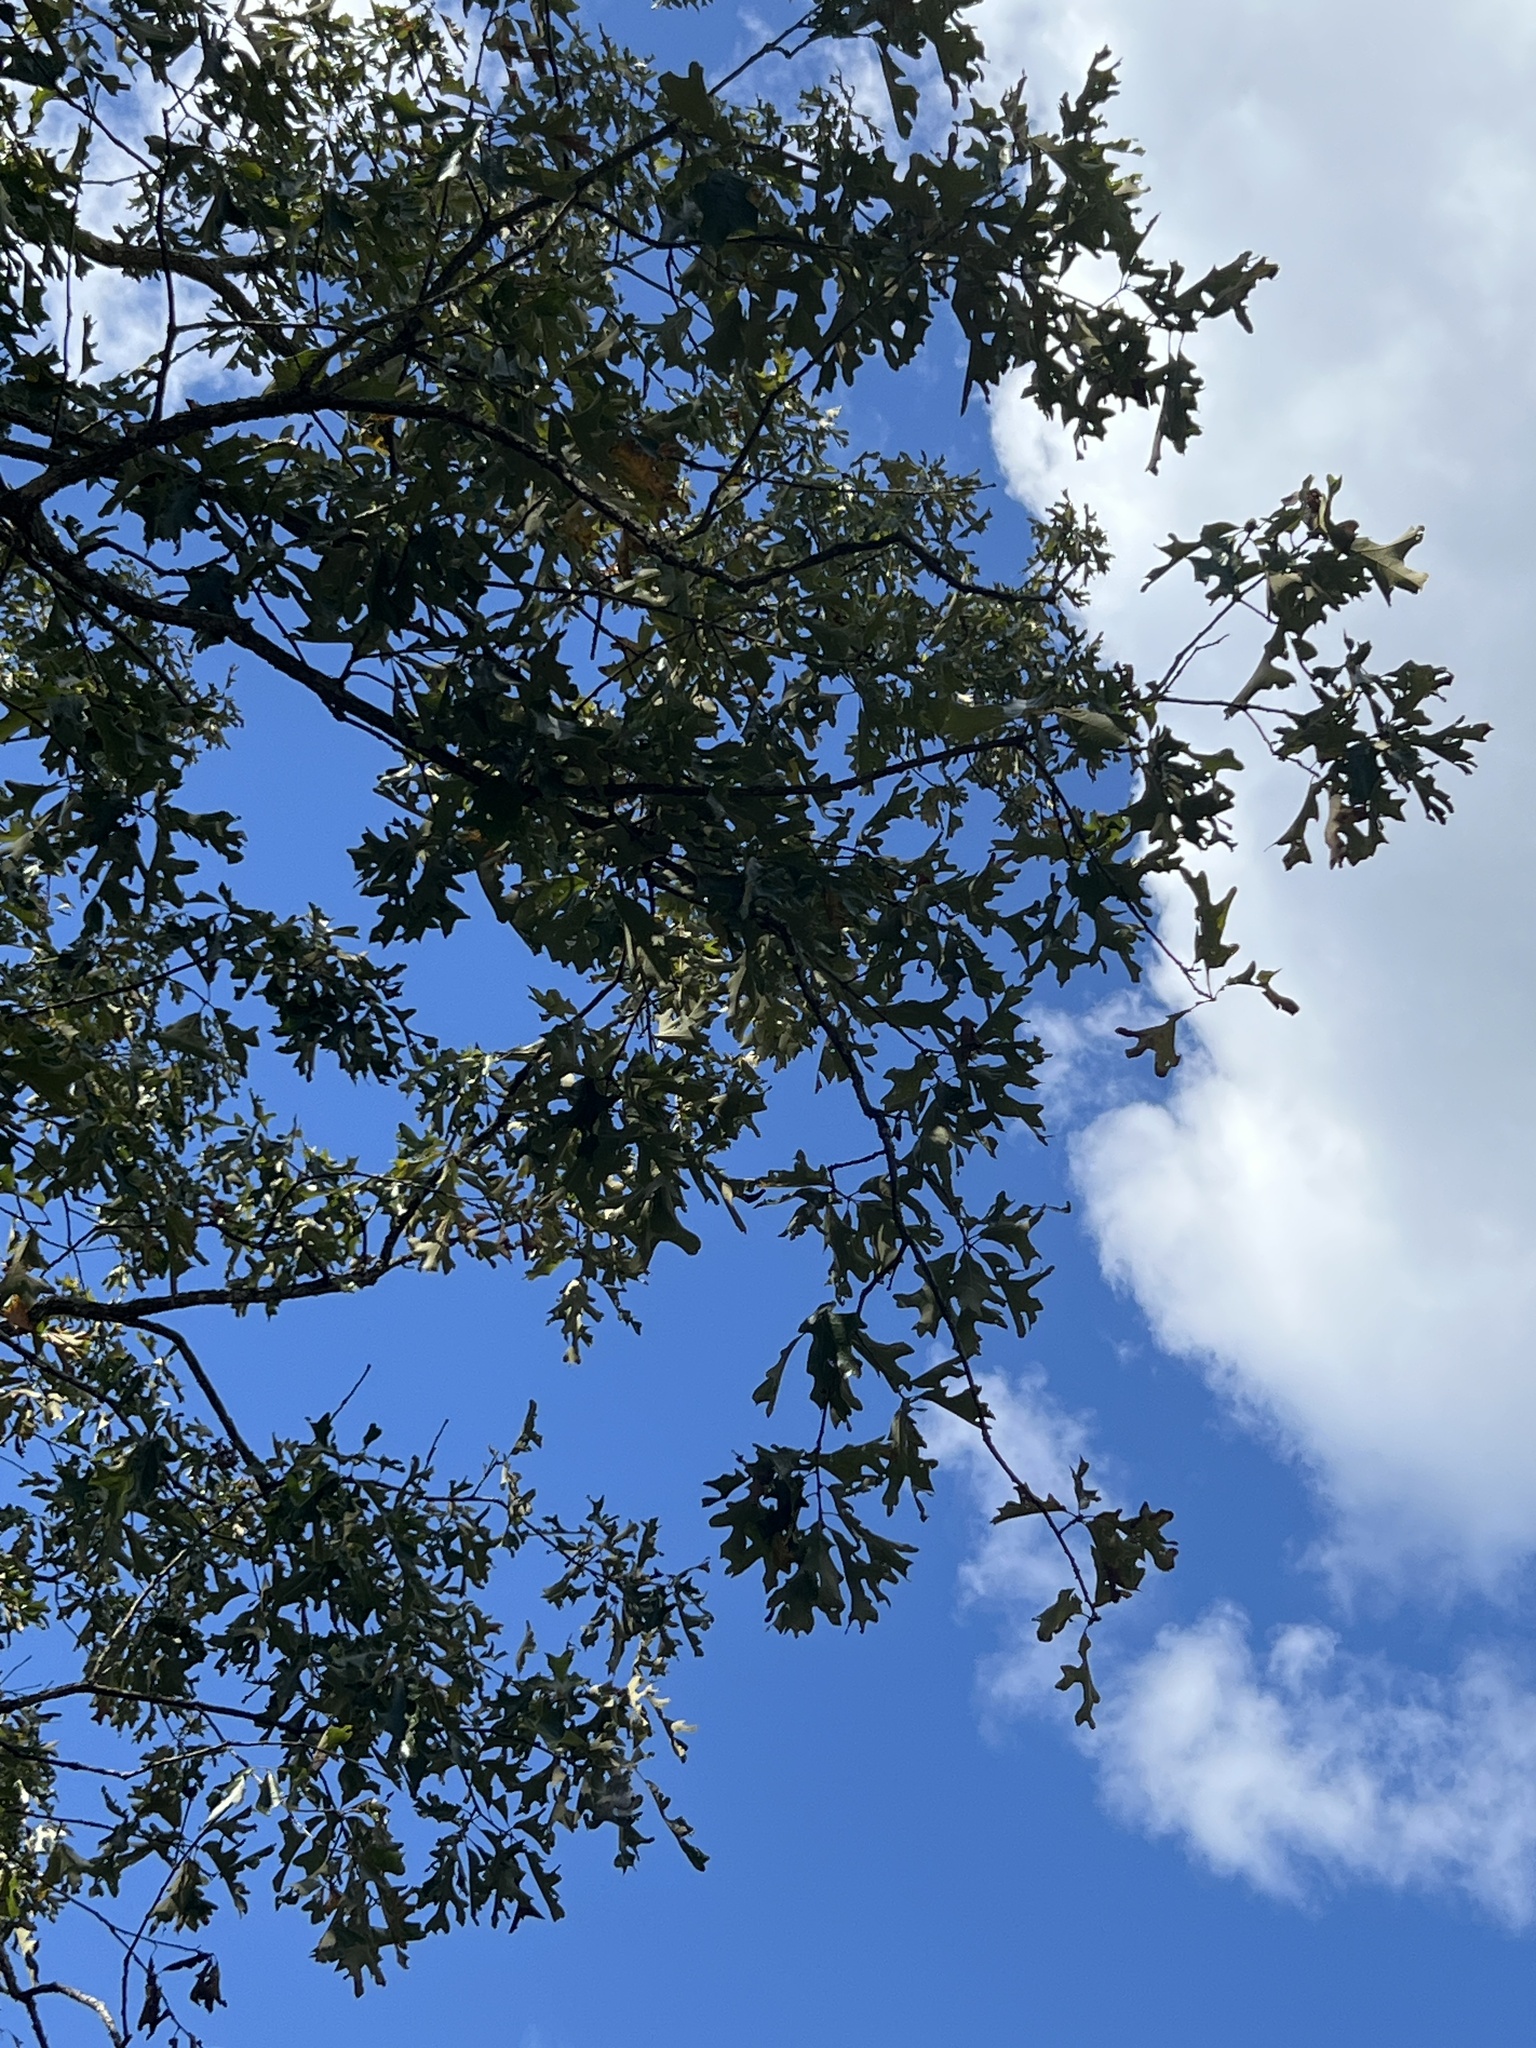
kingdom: Plantae
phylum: Tracheophyta
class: Magnoliopsida
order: Fagales
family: Fagaceae
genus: Quercus
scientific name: Quercus stellata
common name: Post oak
